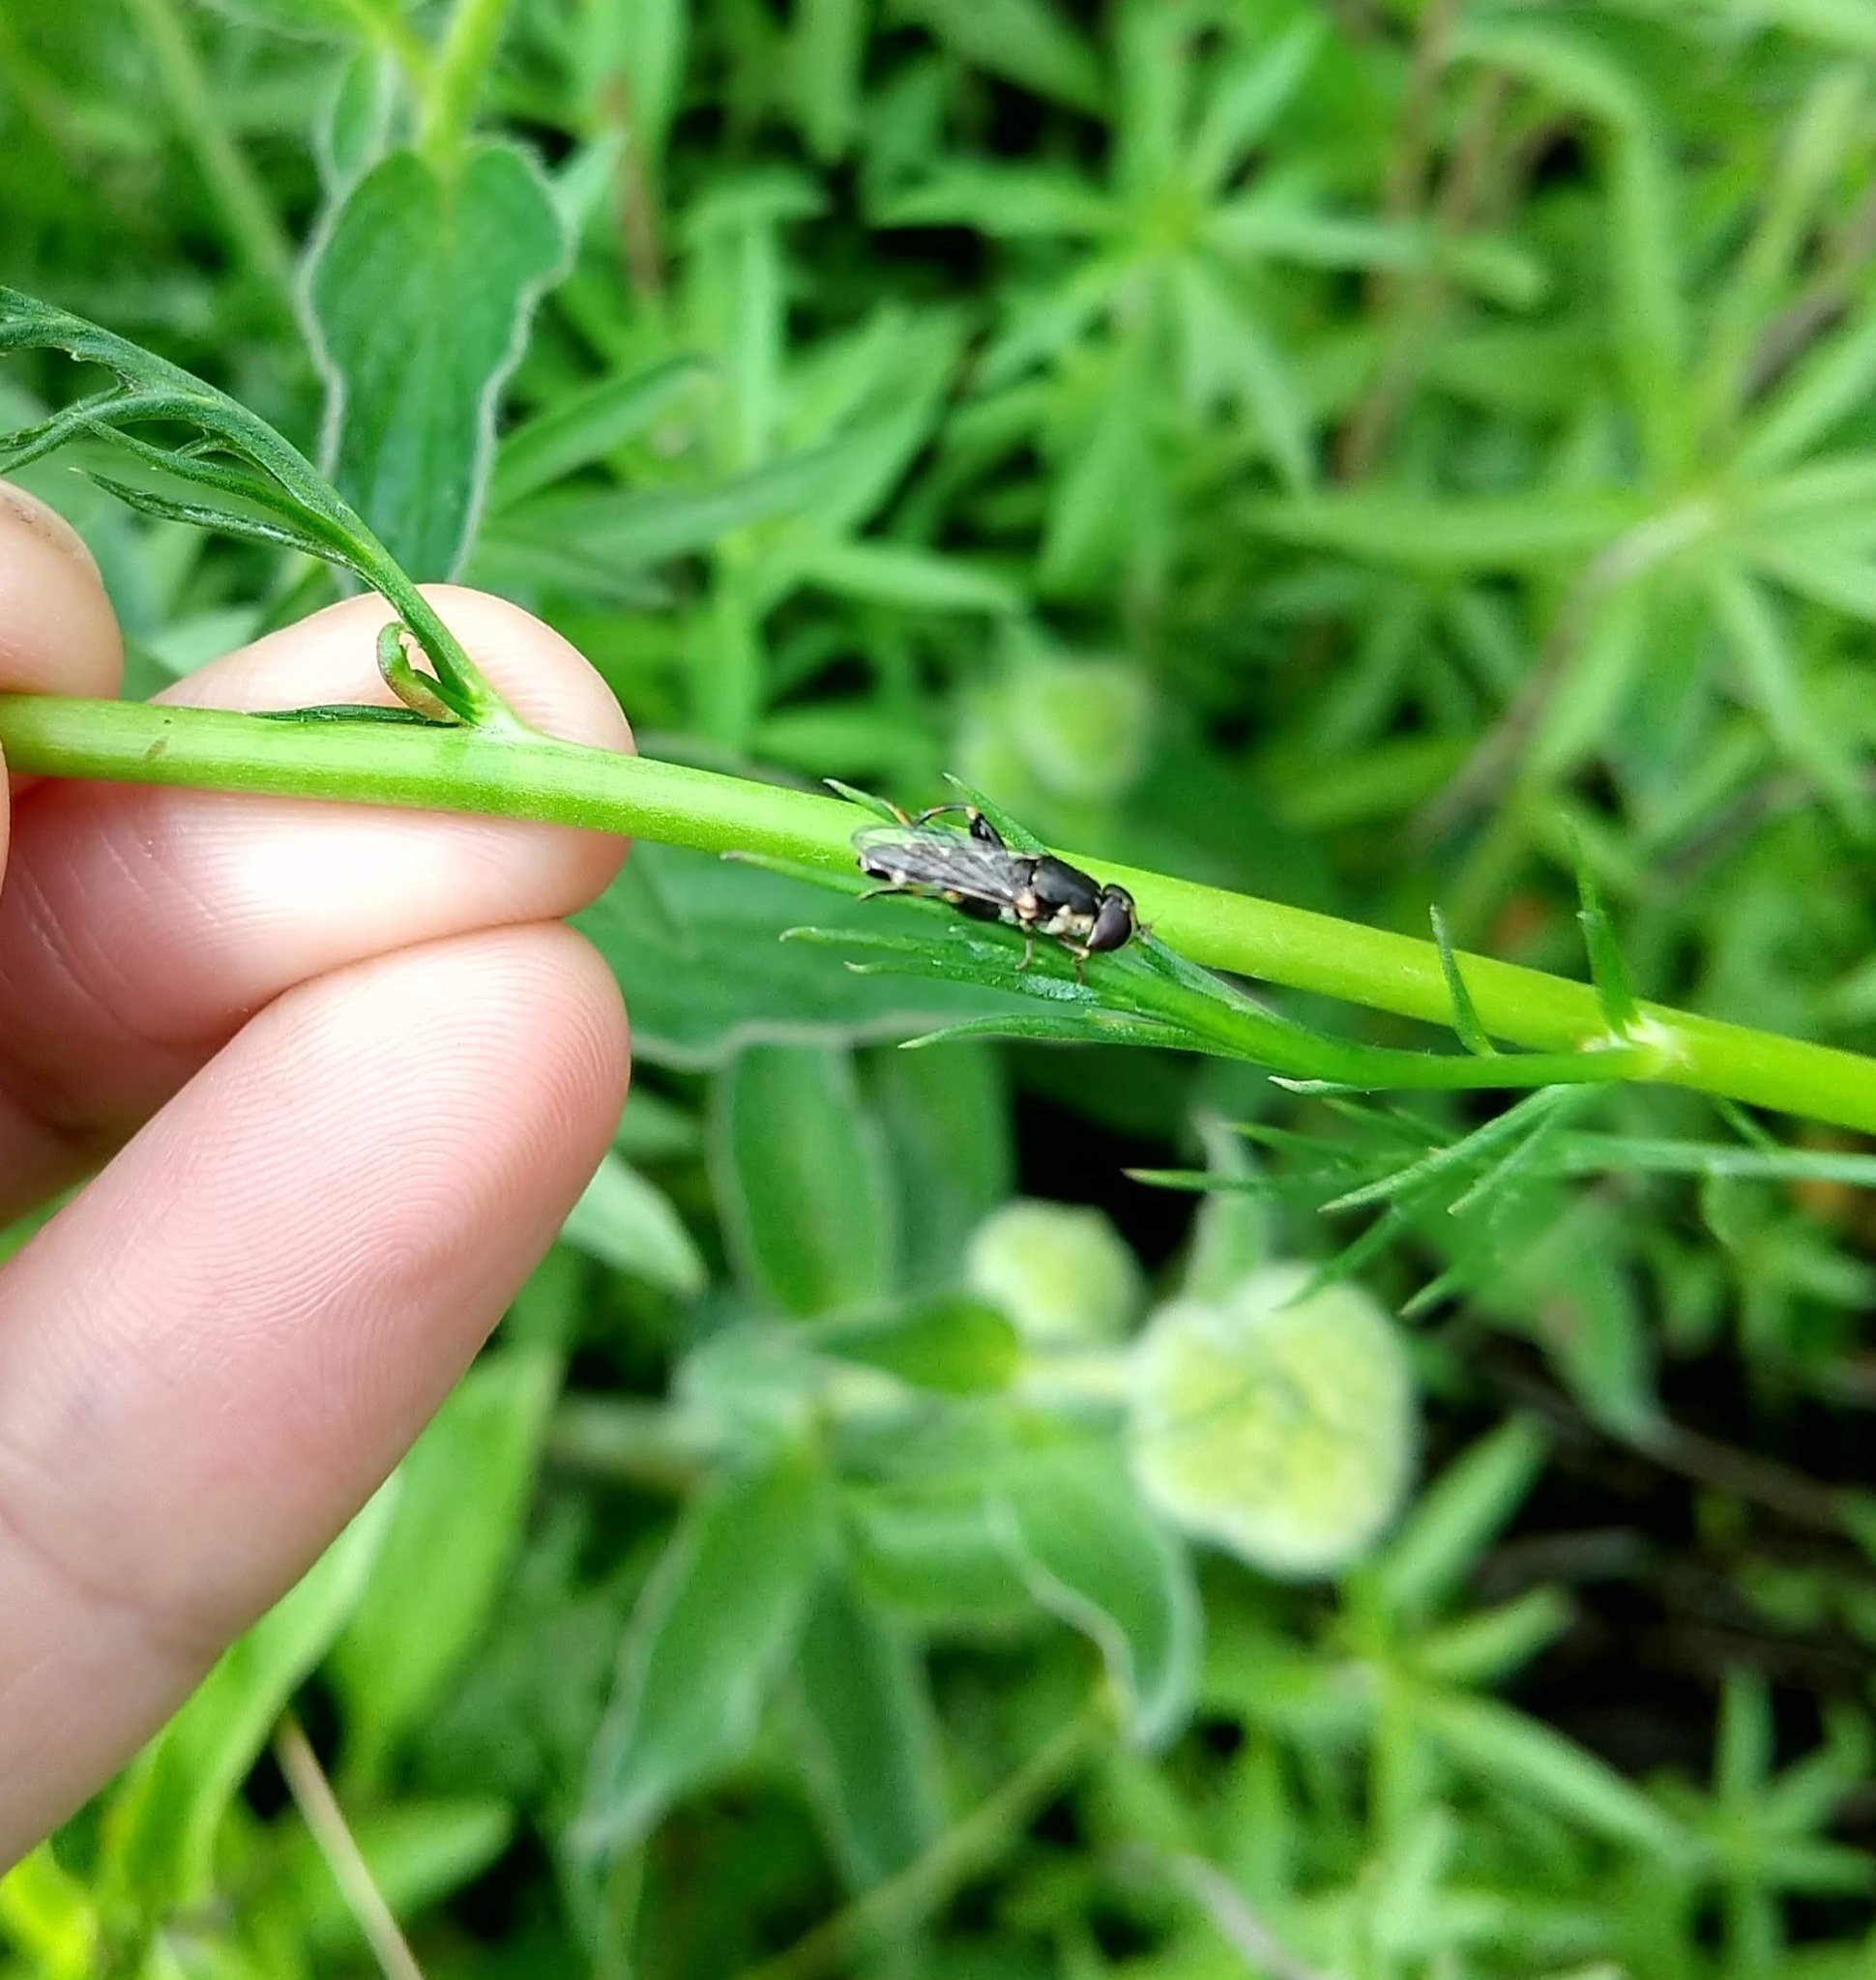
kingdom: Animalia
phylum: Arthropoda
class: Insecta
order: Diptera
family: Syrphidae
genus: Syritta
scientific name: Syritta pipiens
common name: Hover fly
